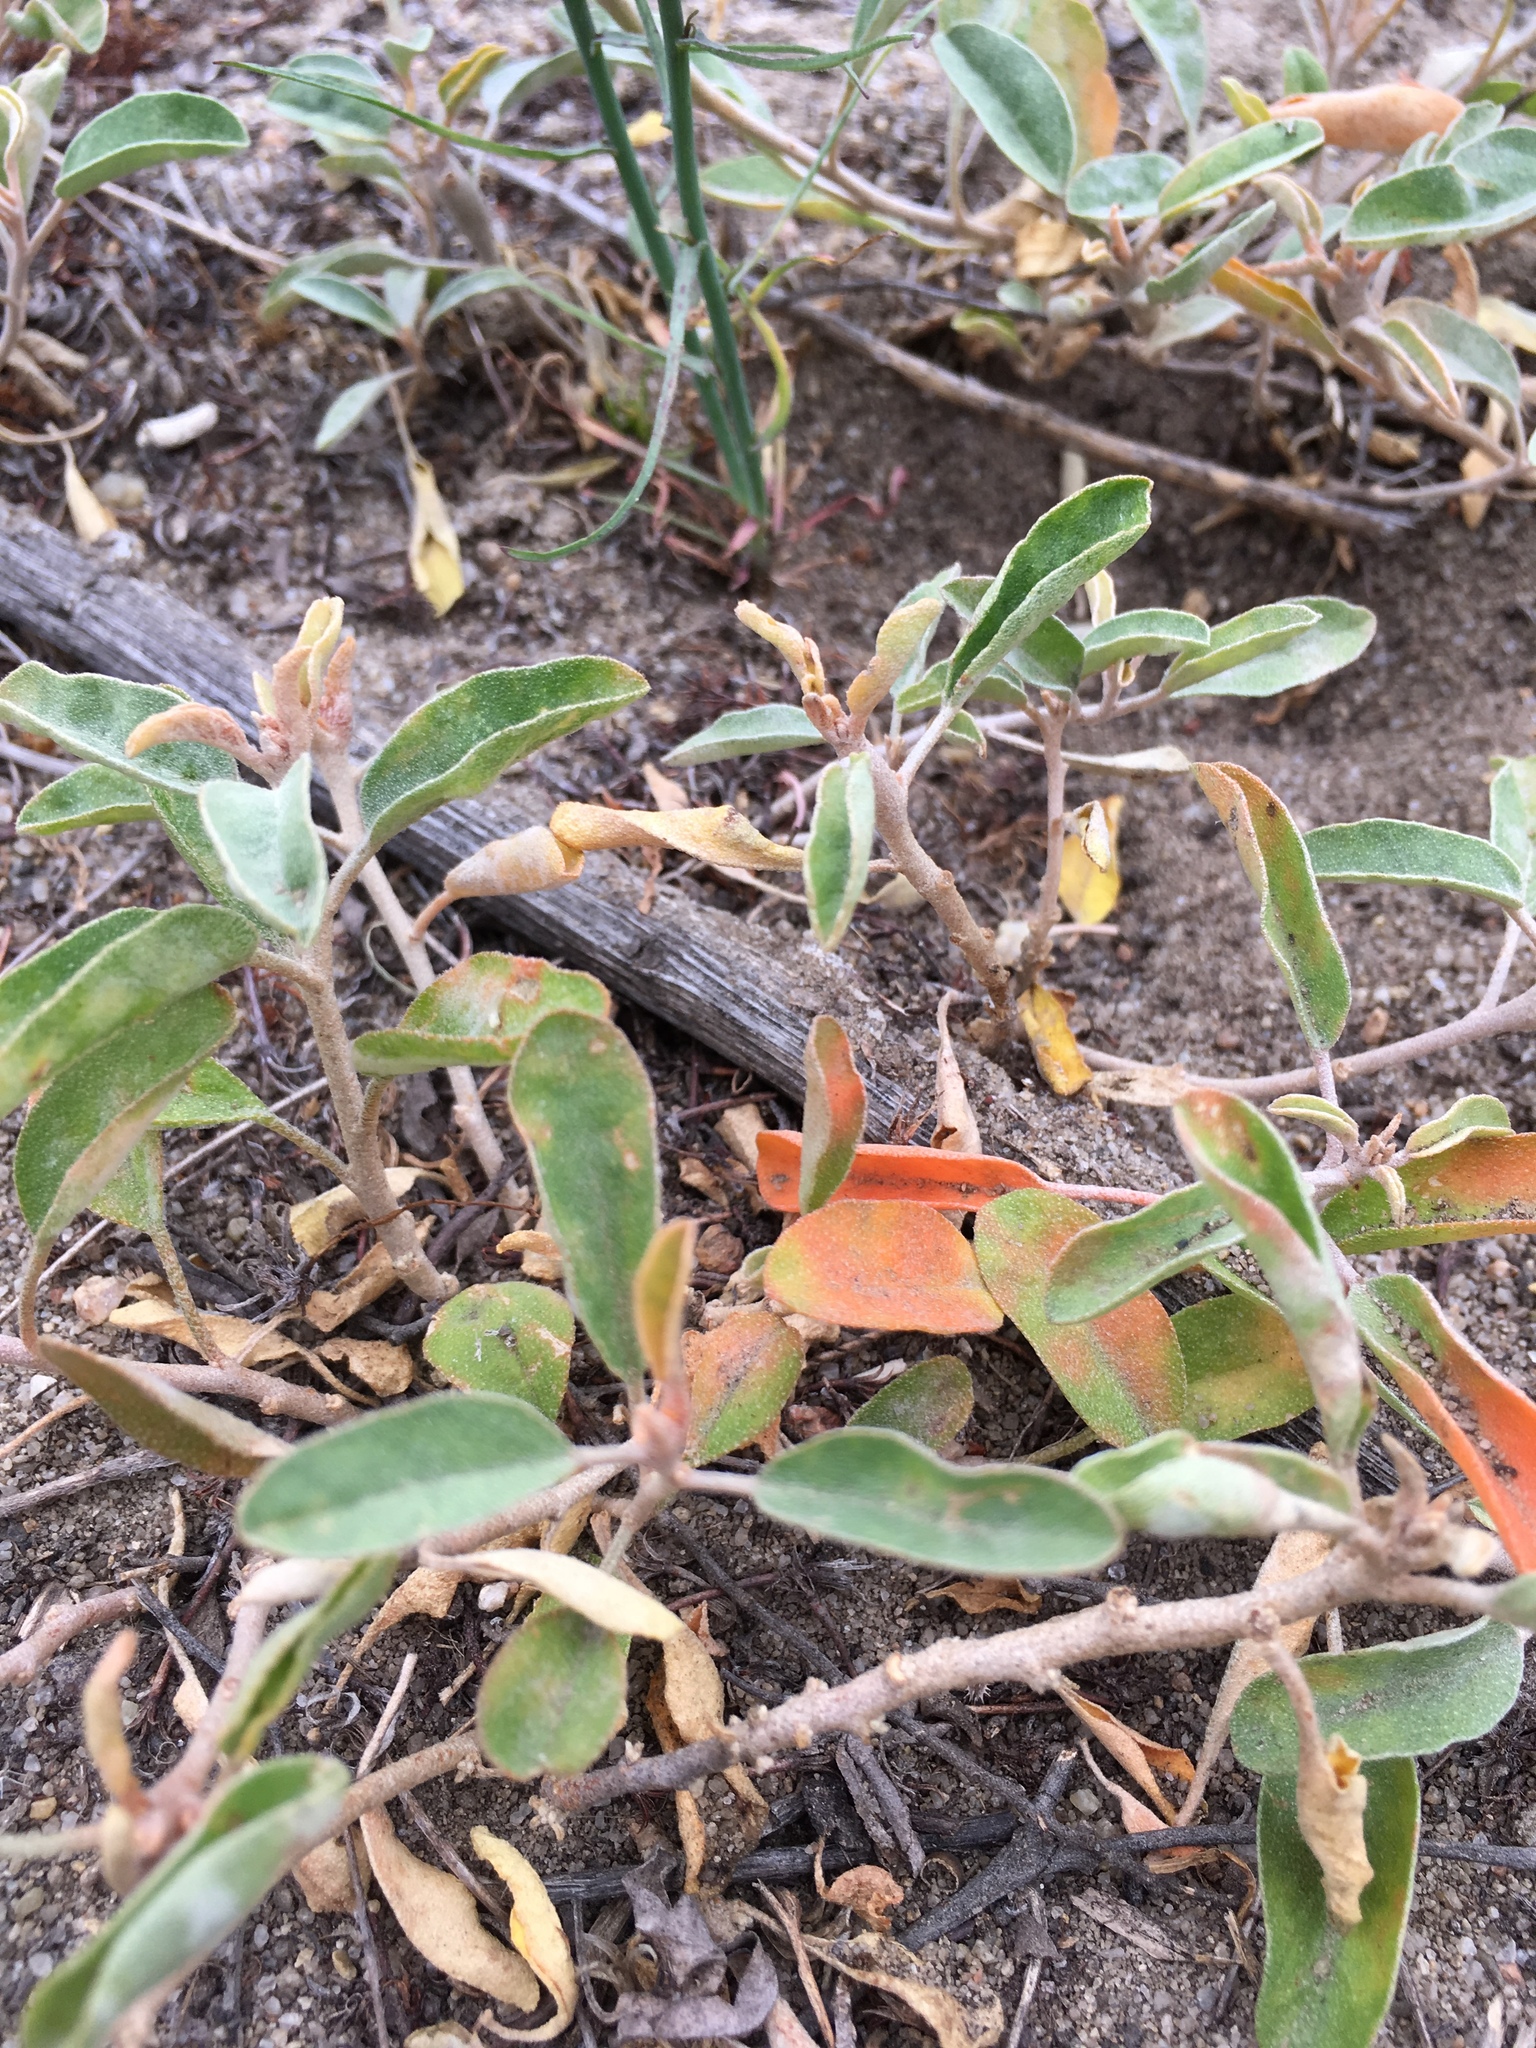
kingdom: Plantae
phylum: Tracheophyta
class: Magnoliopsida
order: Malpighiales
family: Euphorbiaceae
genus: Croton
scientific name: Croton californicus
